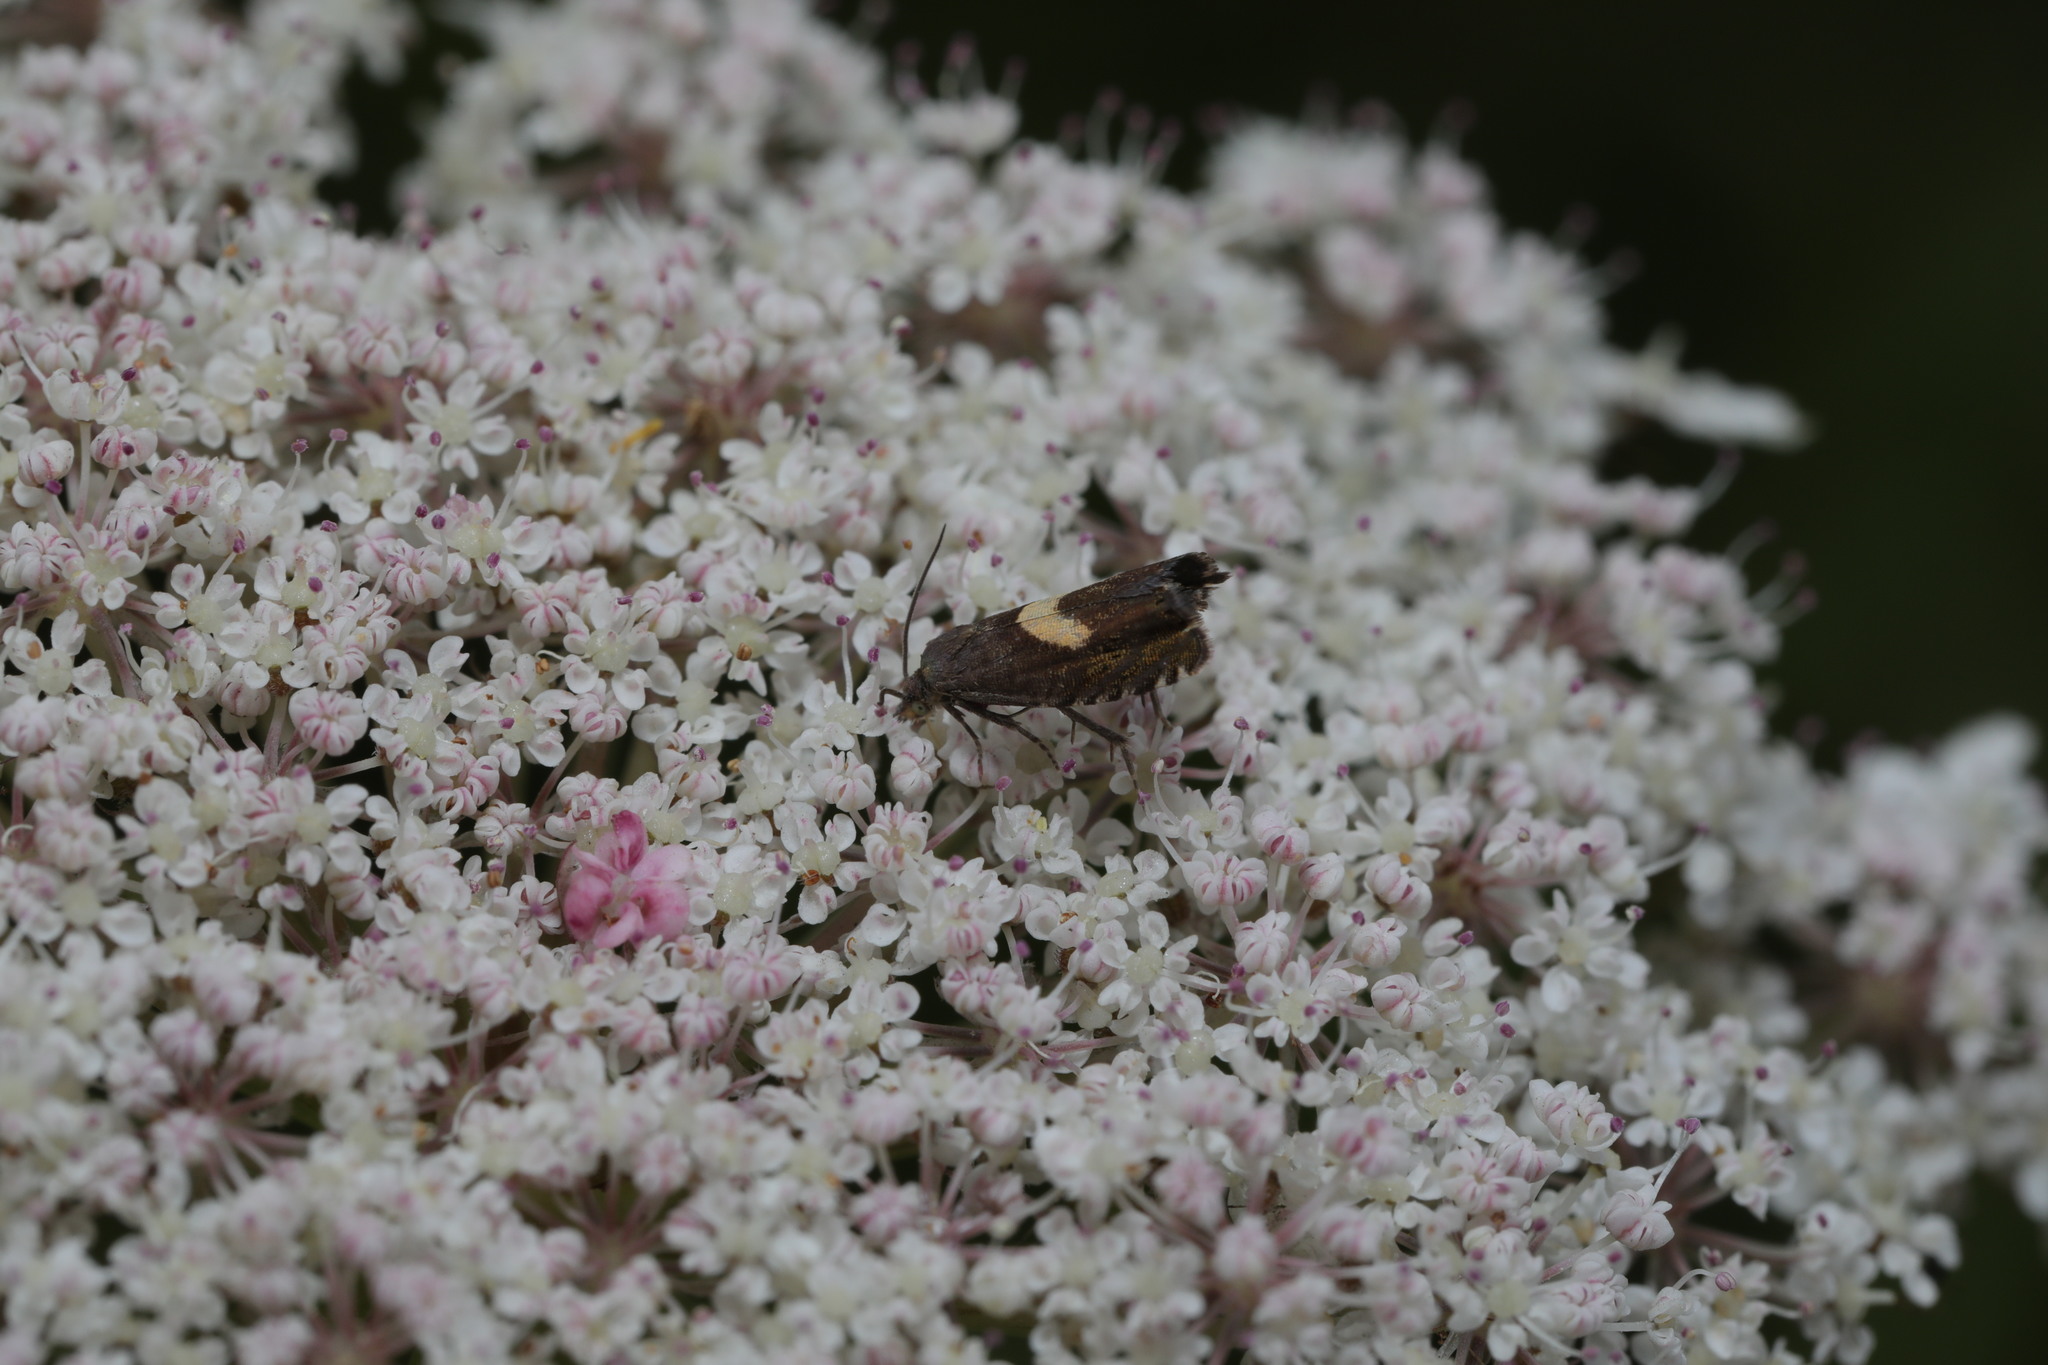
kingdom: Animalia
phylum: Arthropoda
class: Insecta
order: Lepidoptera
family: Tortricidae
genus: Dichrorampha
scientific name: Dichrorampha petiverella
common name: Common drill
